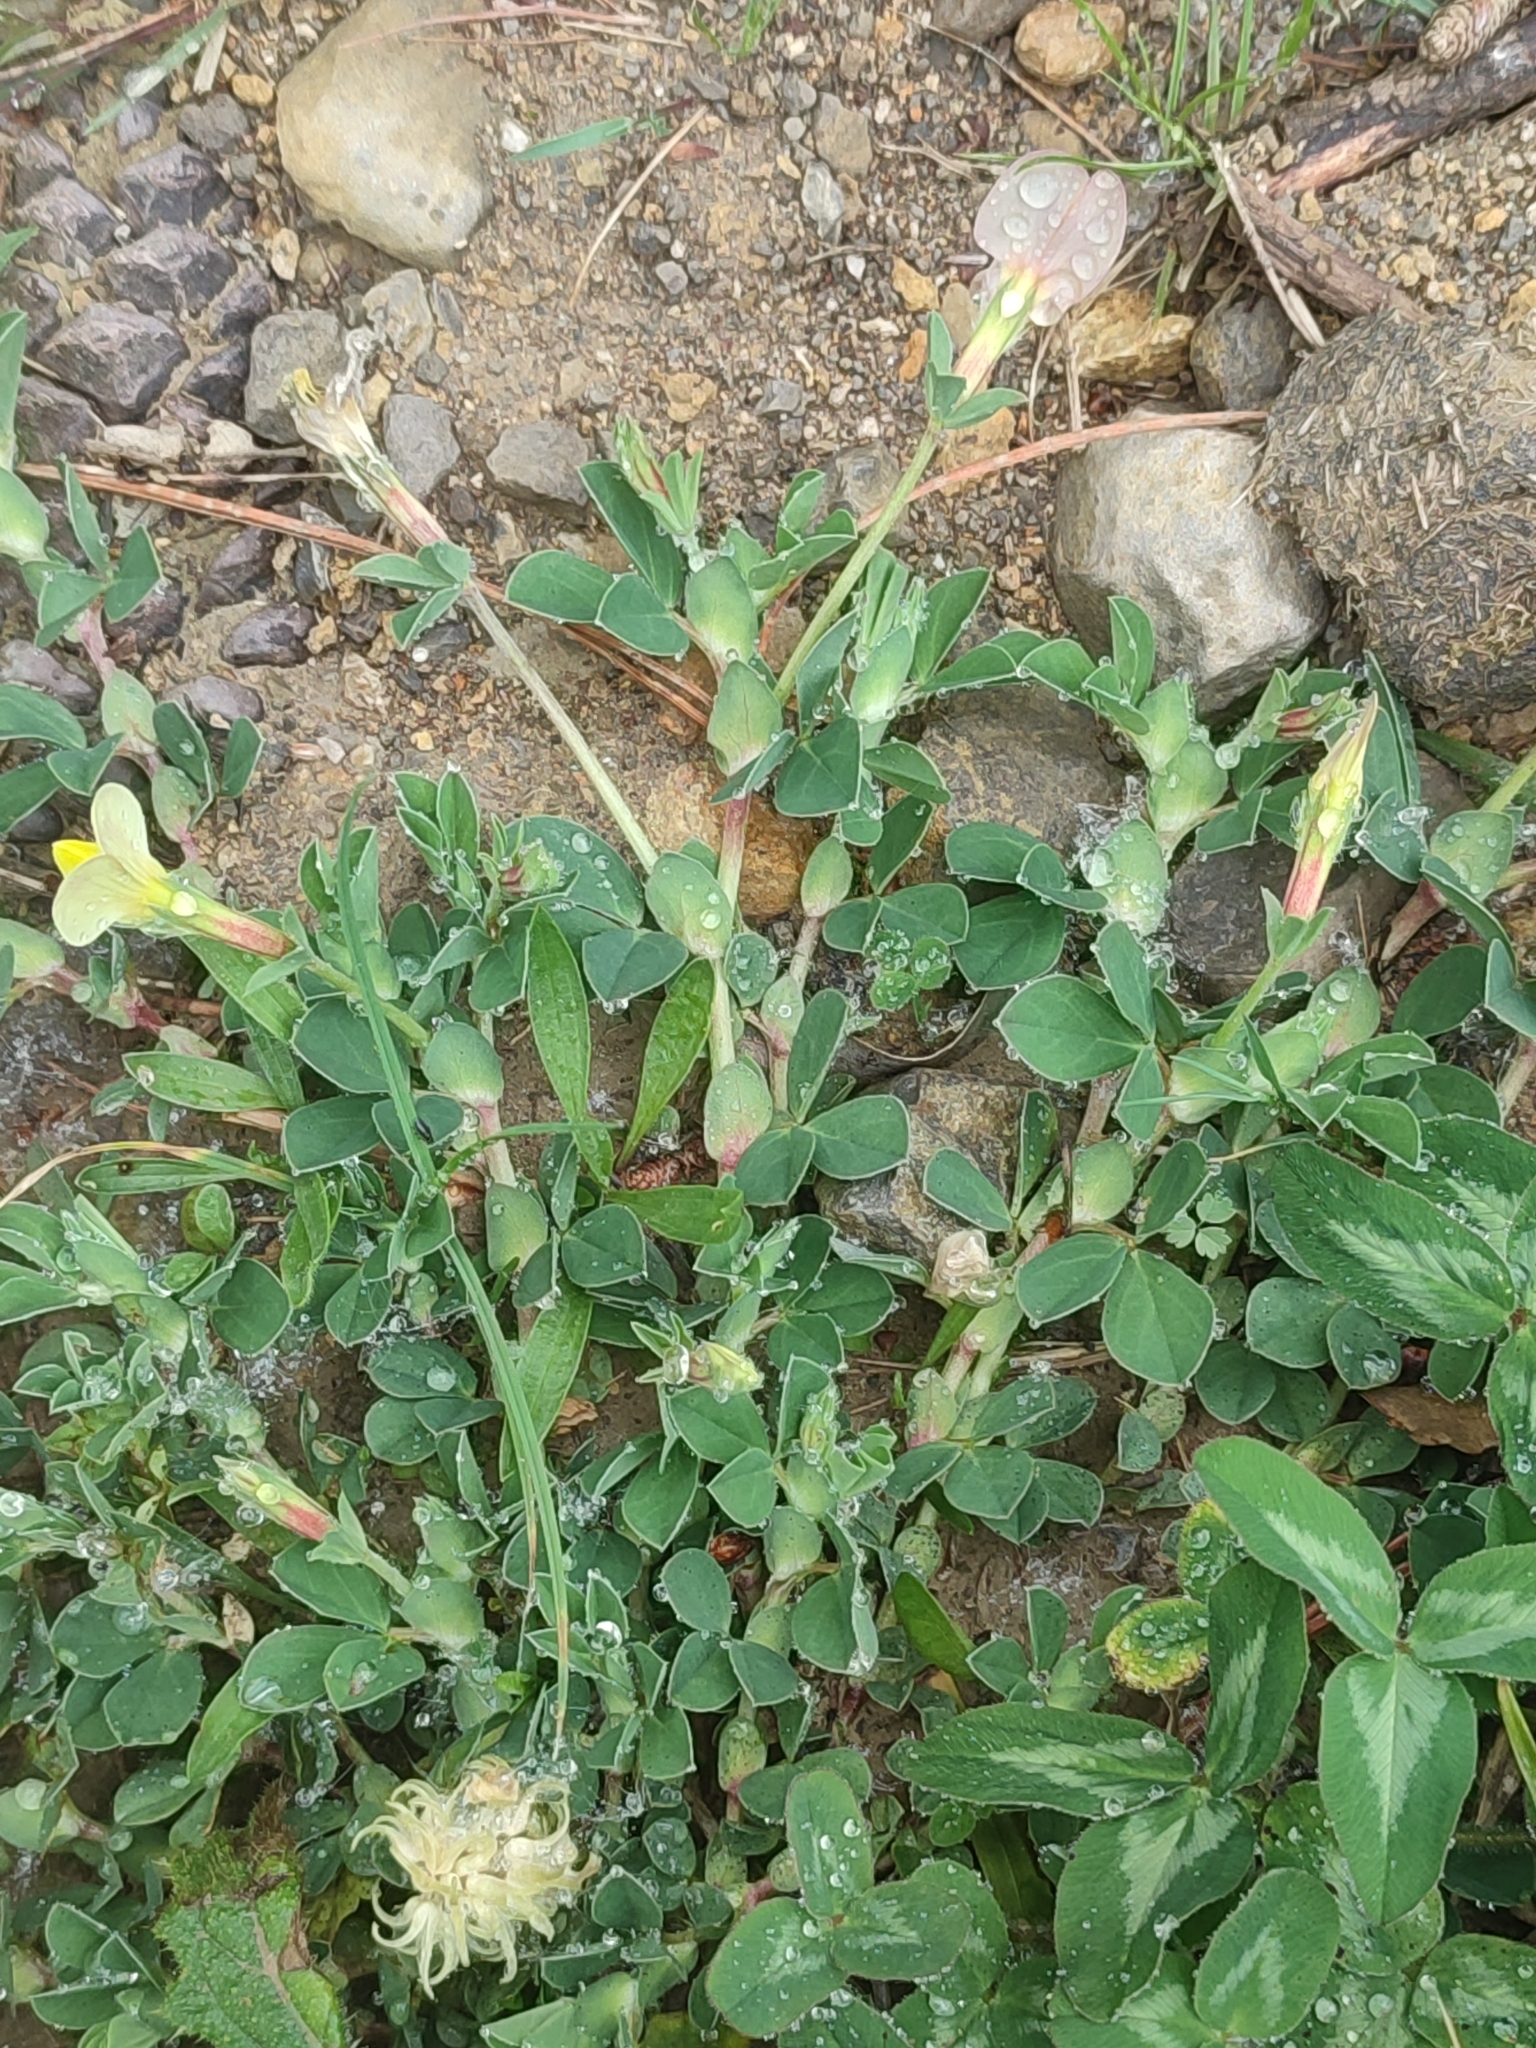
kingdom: Plantae
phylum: Tracheophyta
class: Magnoliopsida
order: Fabales
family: Fabaceae
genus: Lotus
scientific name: Lotus maritimus
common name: Dragon's-teeth
